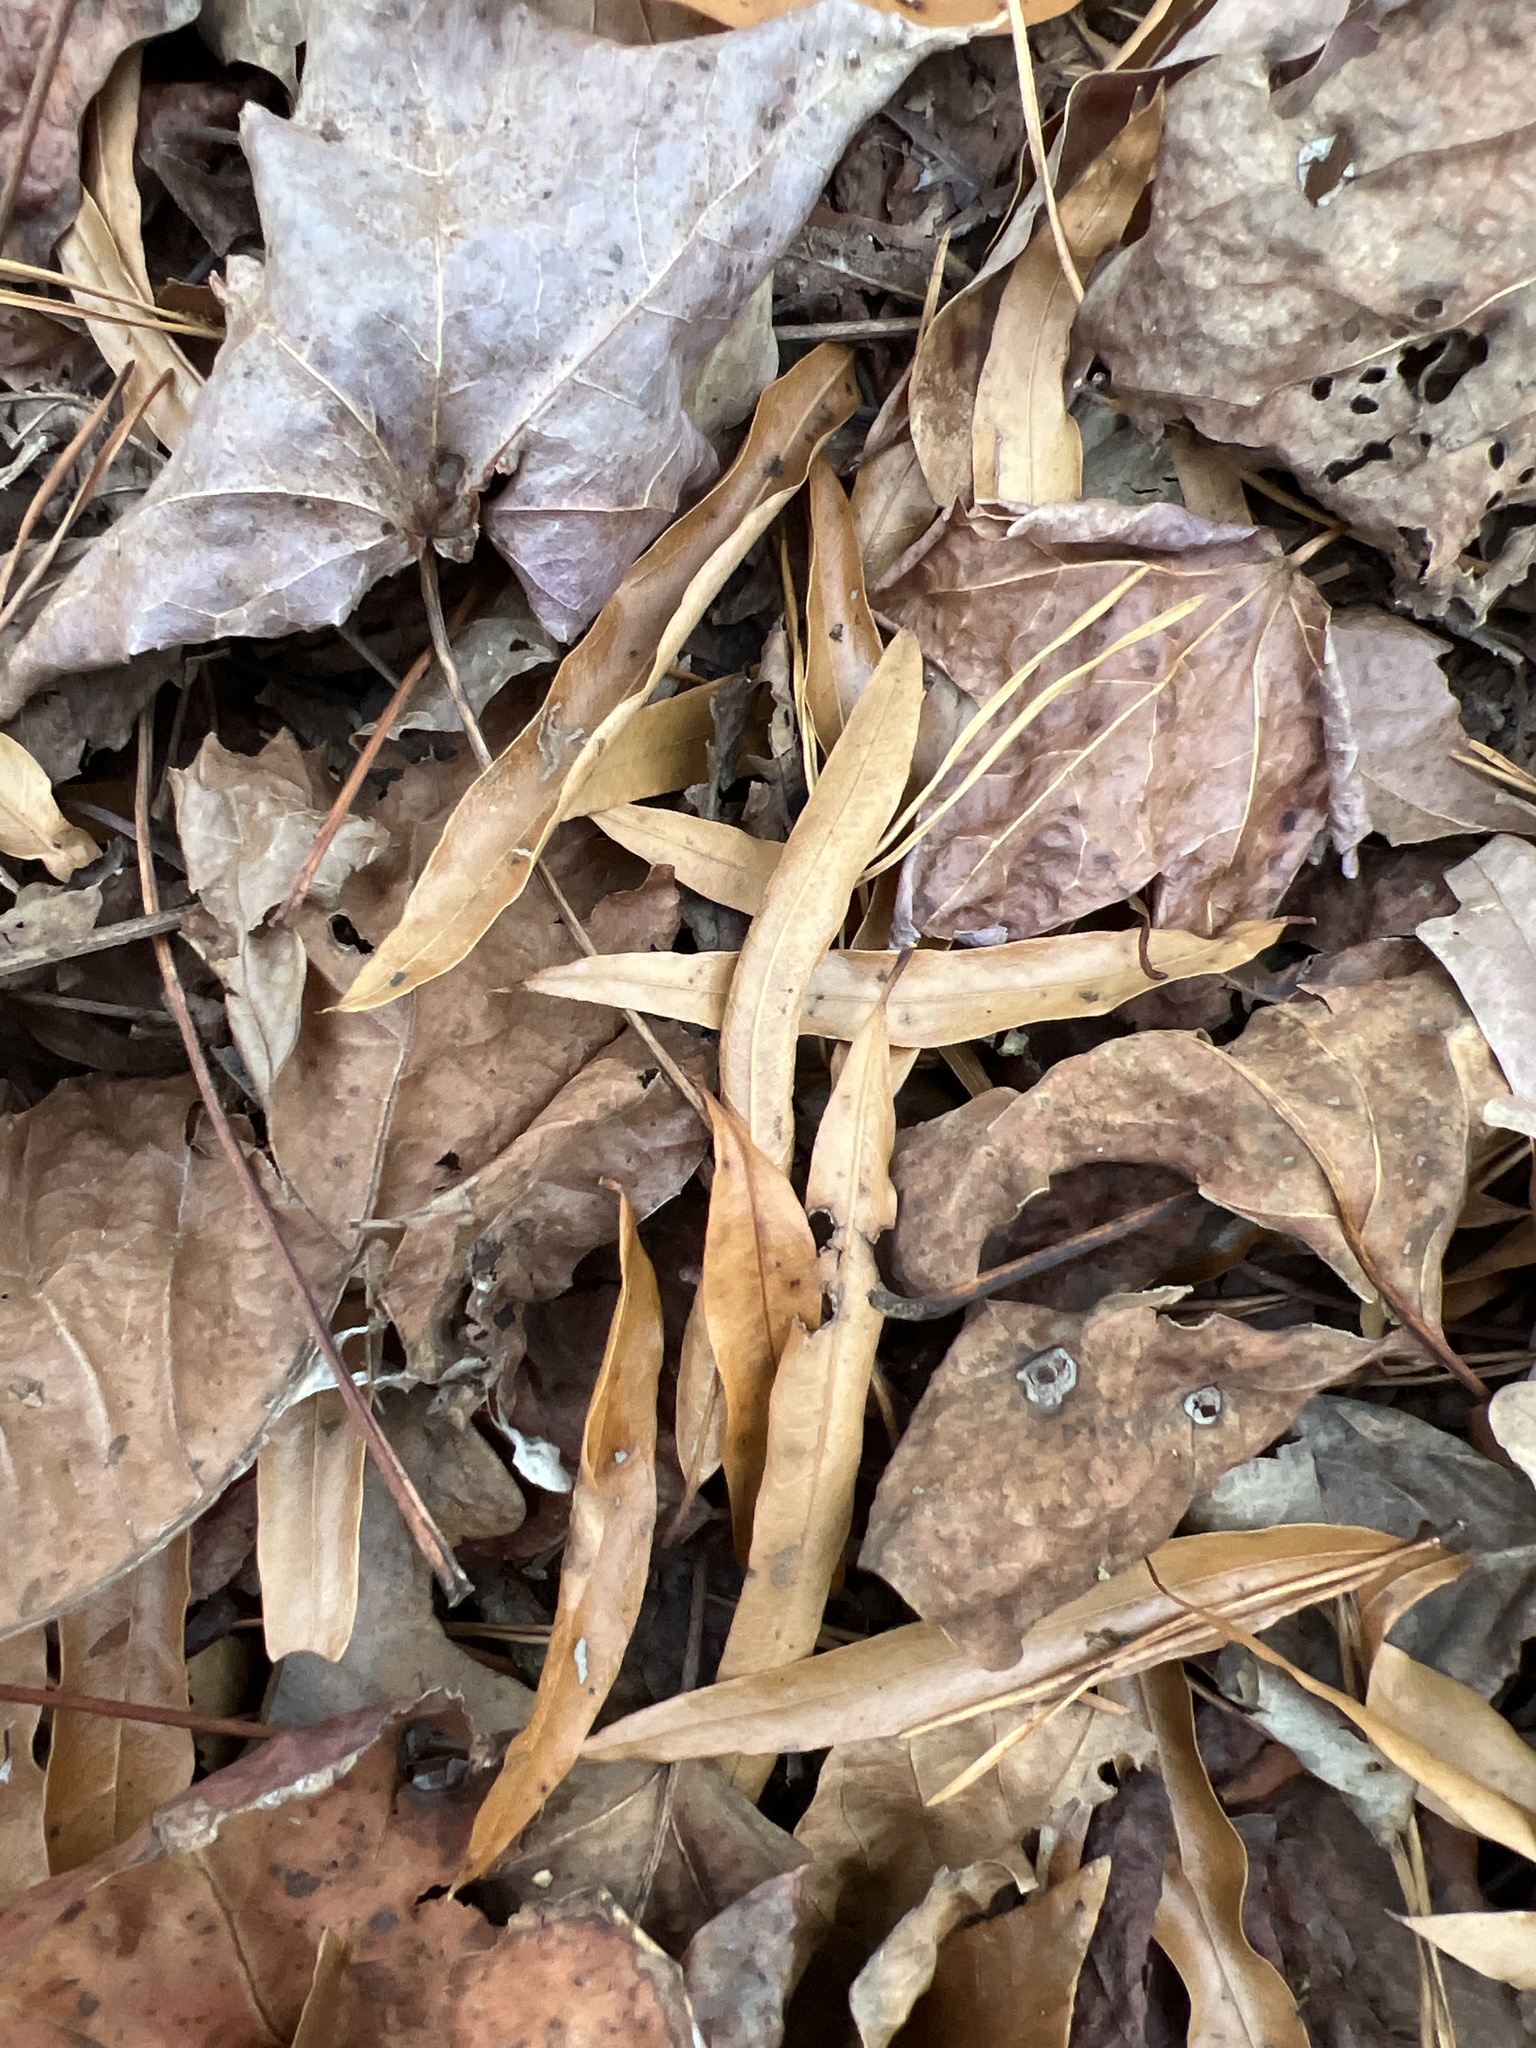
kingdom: Plantae
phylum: Tracheophyta
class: Magnoliopsida
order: Fagales
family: Fagaceae
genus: Quercus
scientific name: Quercus phellos
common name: Willow oak
